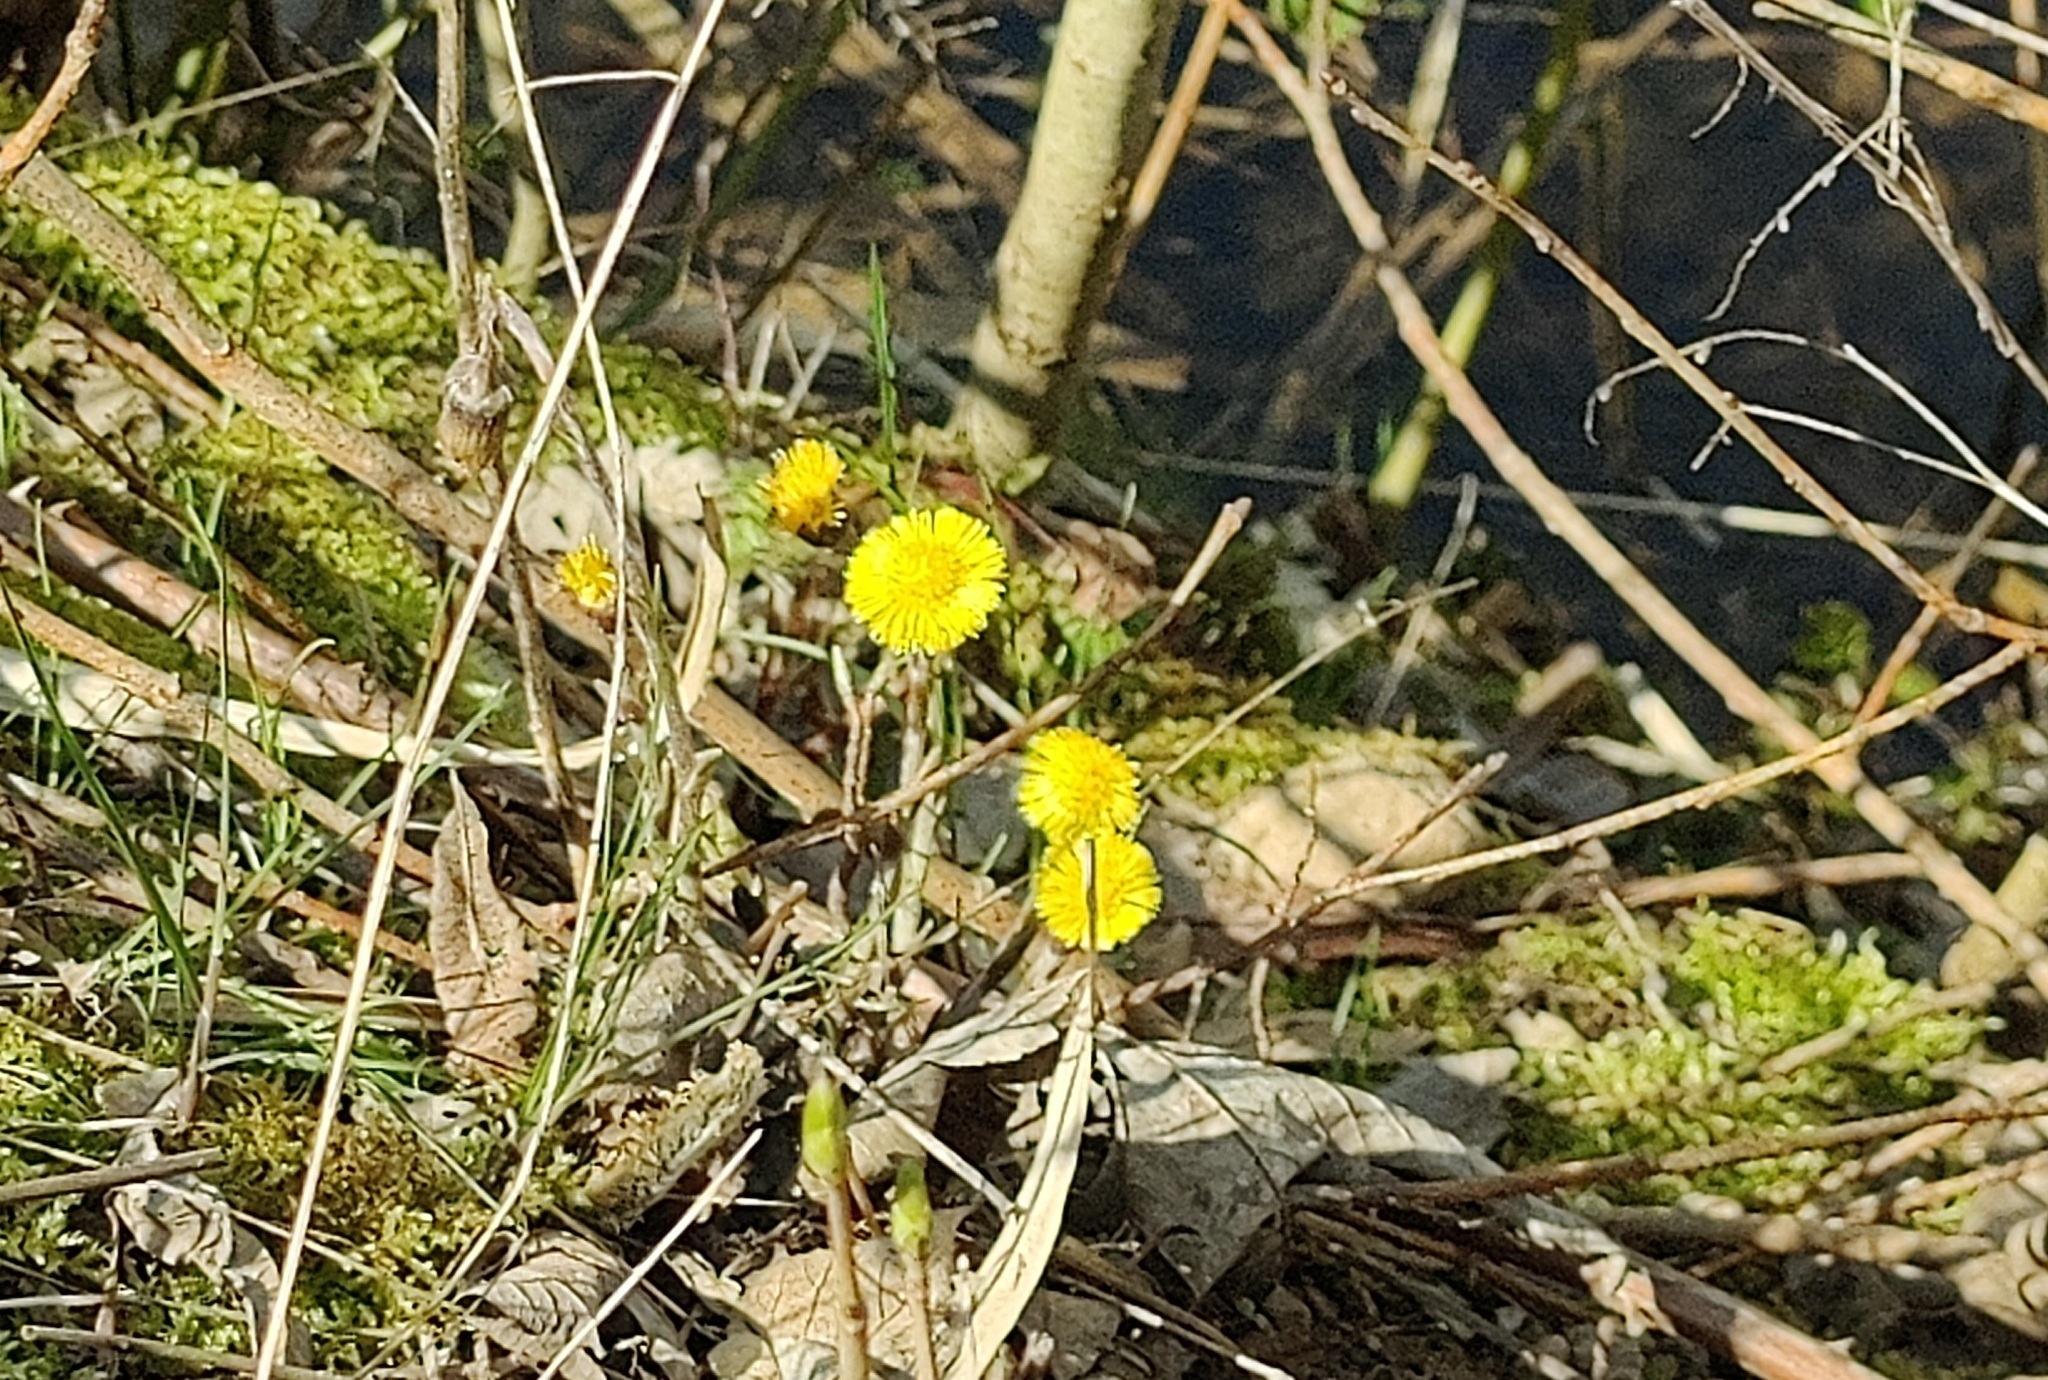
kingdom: Plantae
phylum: Tracheophyta
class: Magnoliopsida
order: Asterales
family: Asteraceae
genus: Tussilago
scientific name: Tussilago farfara
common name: Coltsfoot
